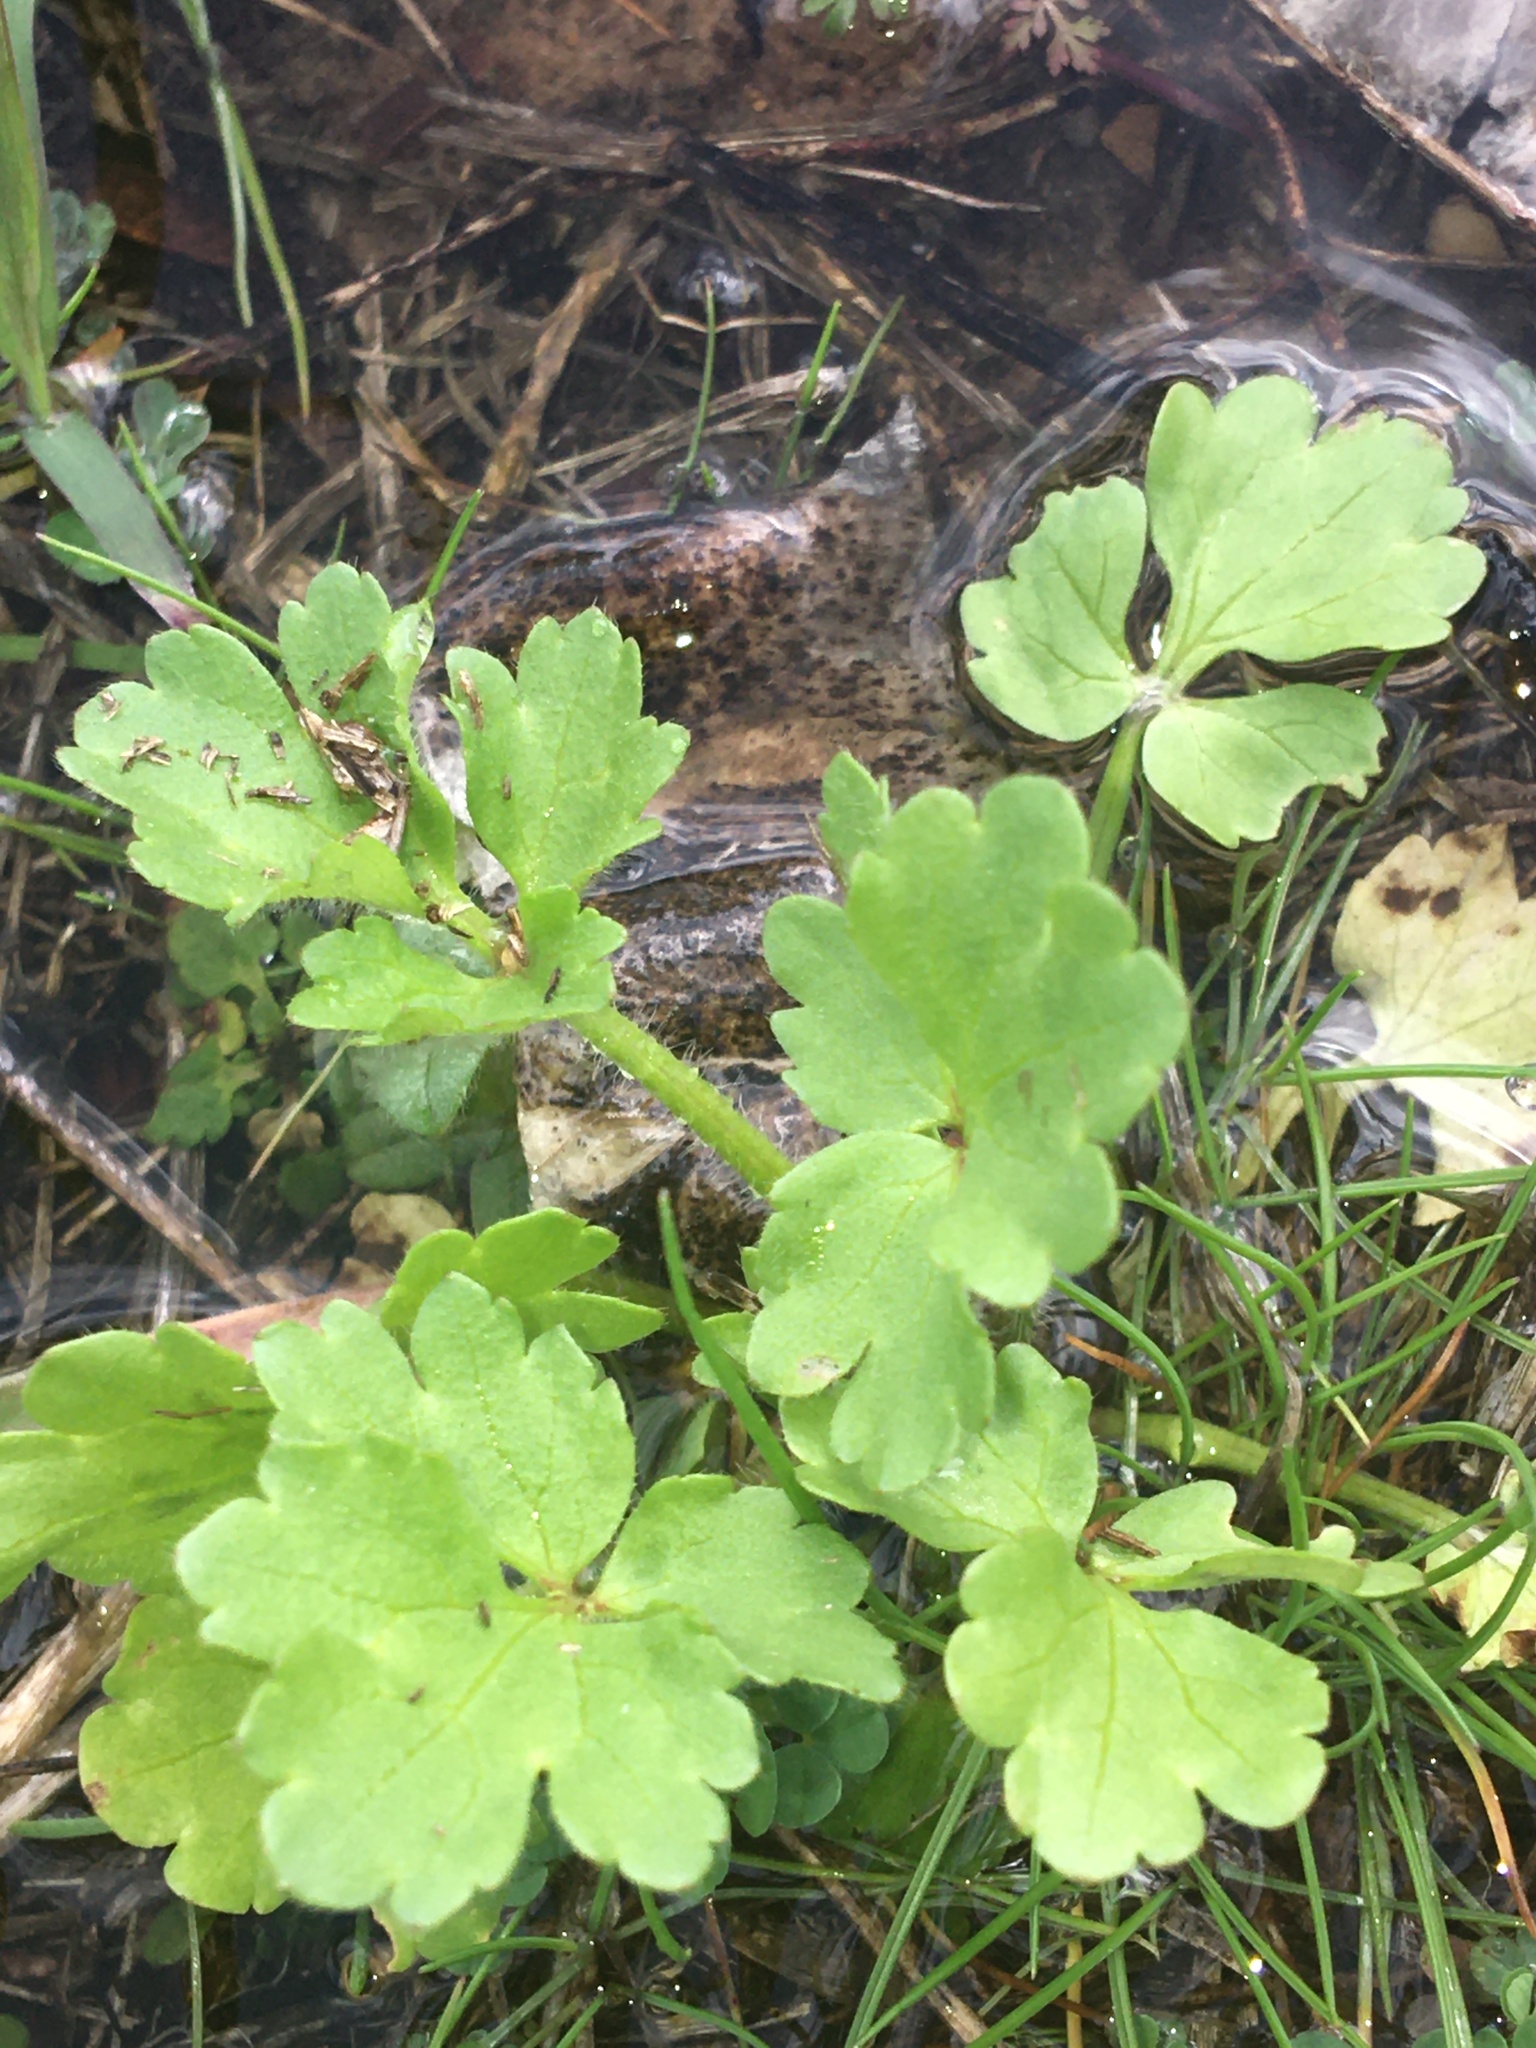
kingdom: Plantae
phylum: Tracheophyta
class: Magnoliopsida
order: Ranunculales
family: Ranunculaceae
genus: Ranunculus
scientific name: Ranunculus sardous
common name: Hairy buttercup
